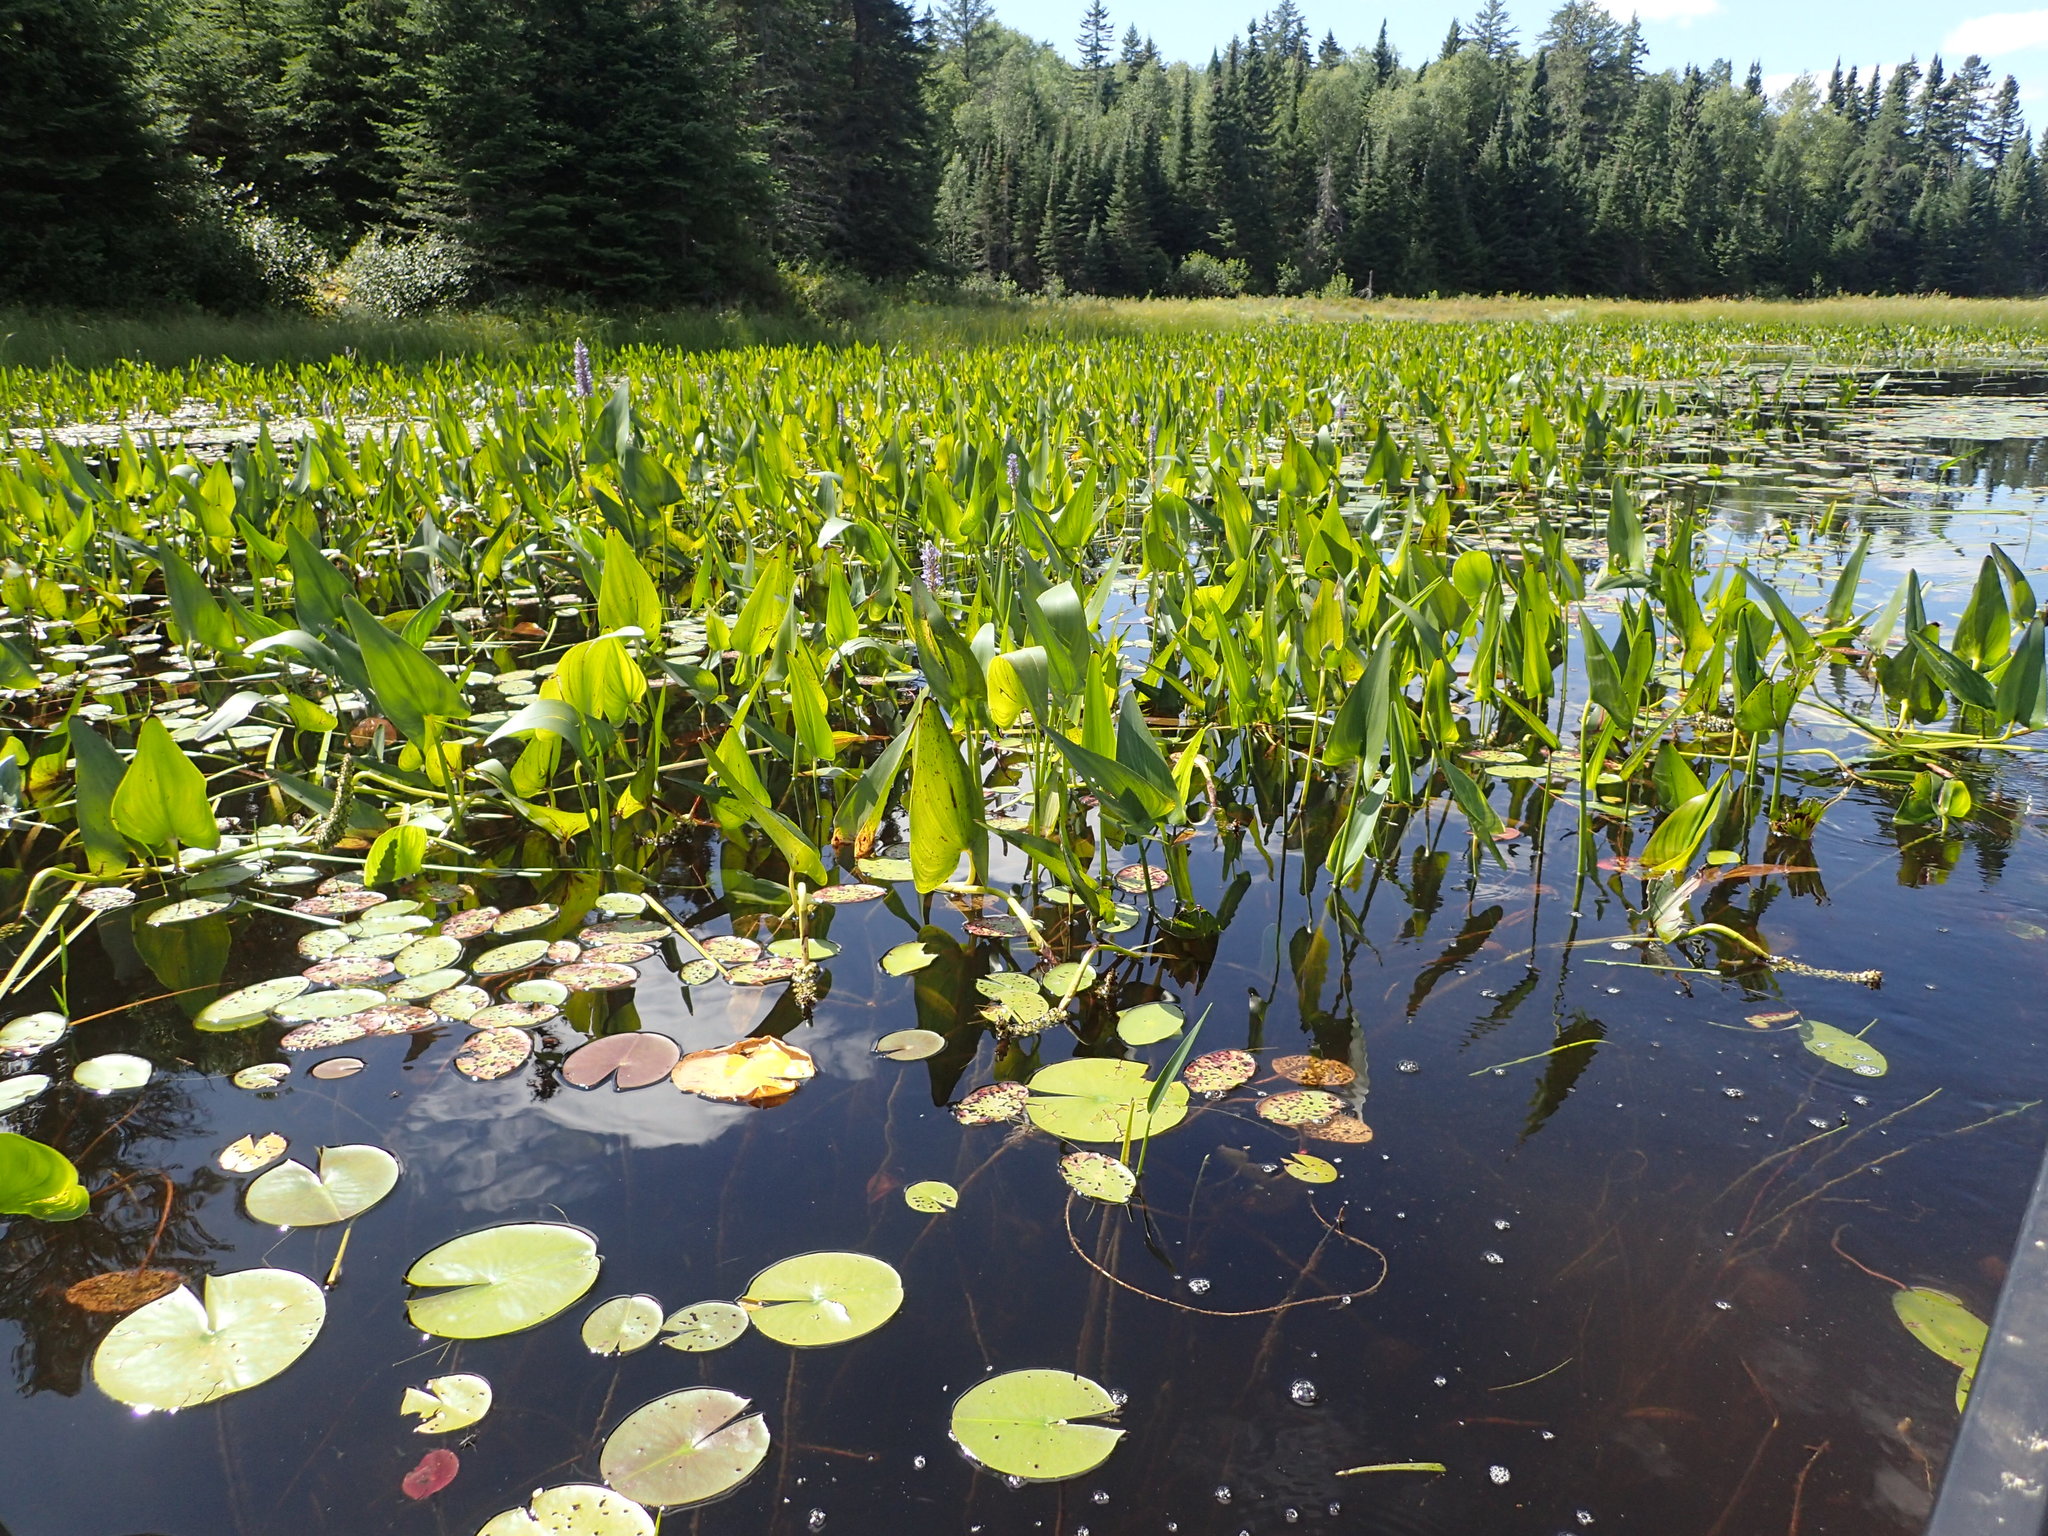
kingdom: Plantae
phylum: Tracheophyta
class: Liliopsida
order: Commelinales
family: Pontederiaceae
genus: Pontederia
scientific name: Pontederia cordata
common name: Pickerelweed
